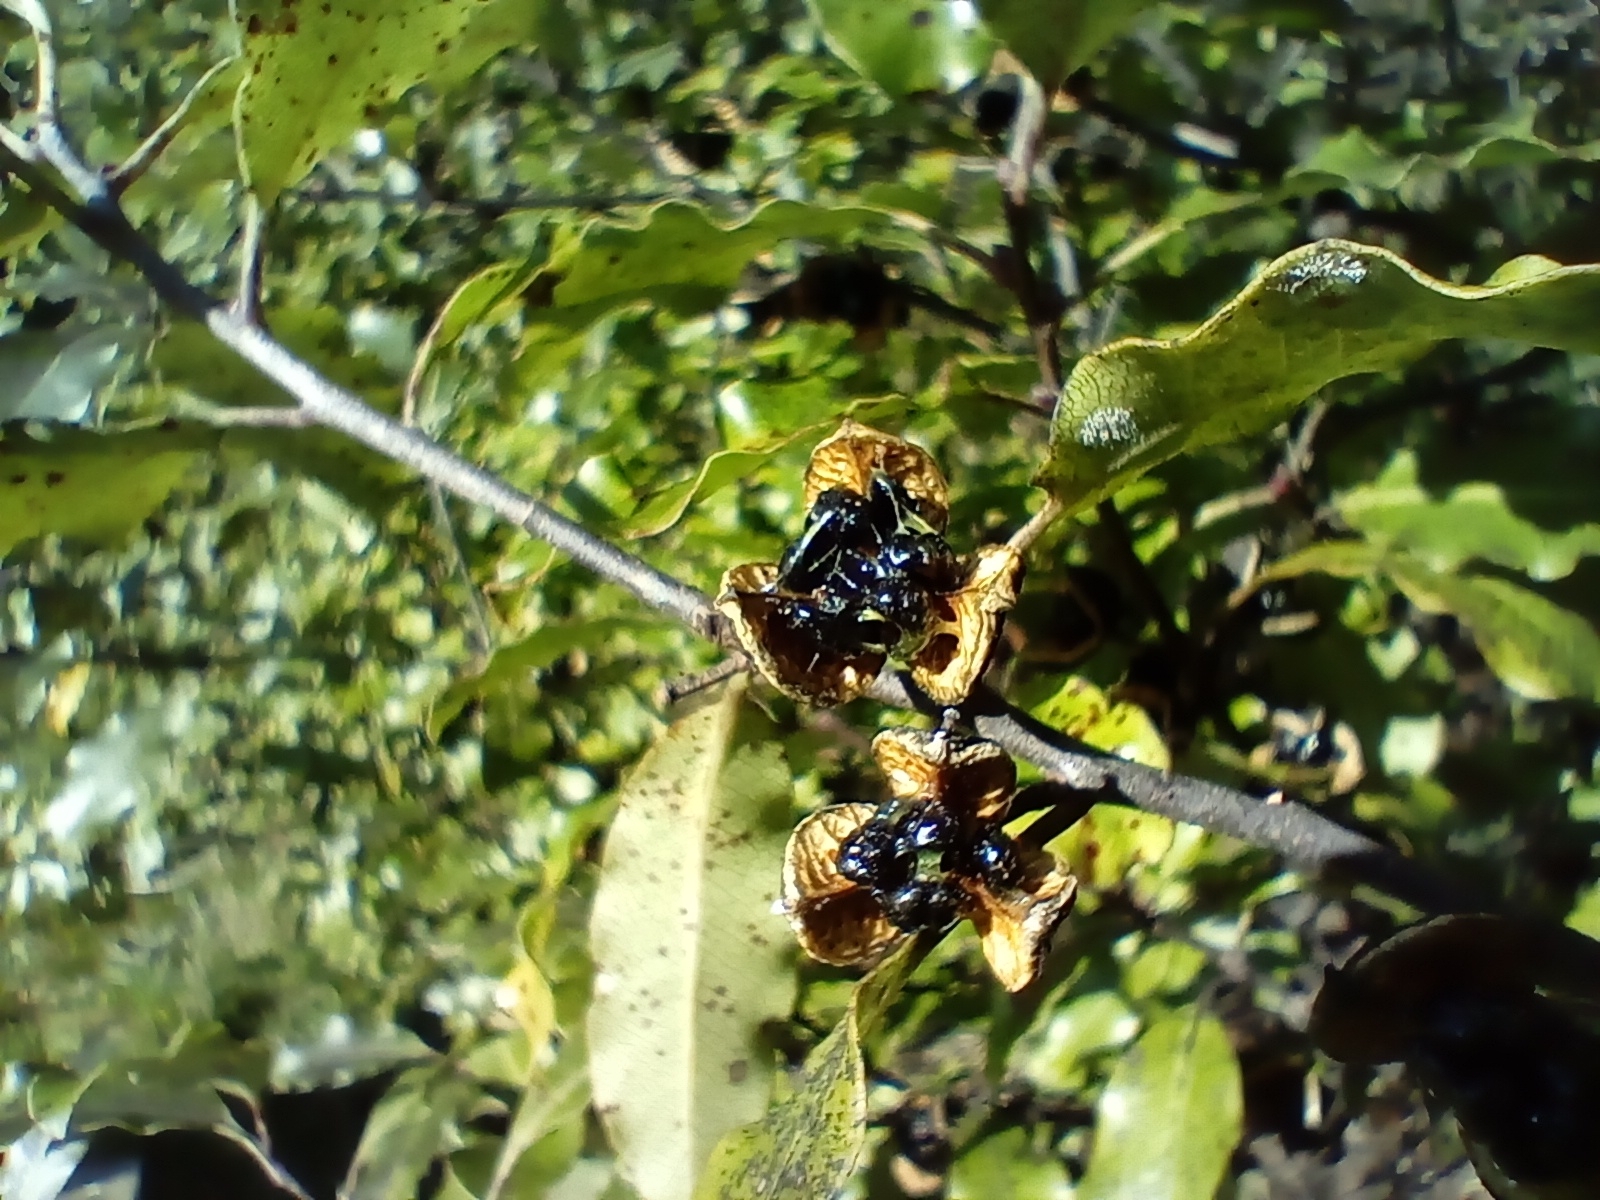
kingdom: Plantae
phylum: Tracheophyta
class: Magnoliopsida
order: Apiales
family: Pittosporaceae
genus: Pittosporum
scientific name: Pittosporum tenuifolium
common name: Kohuhu
